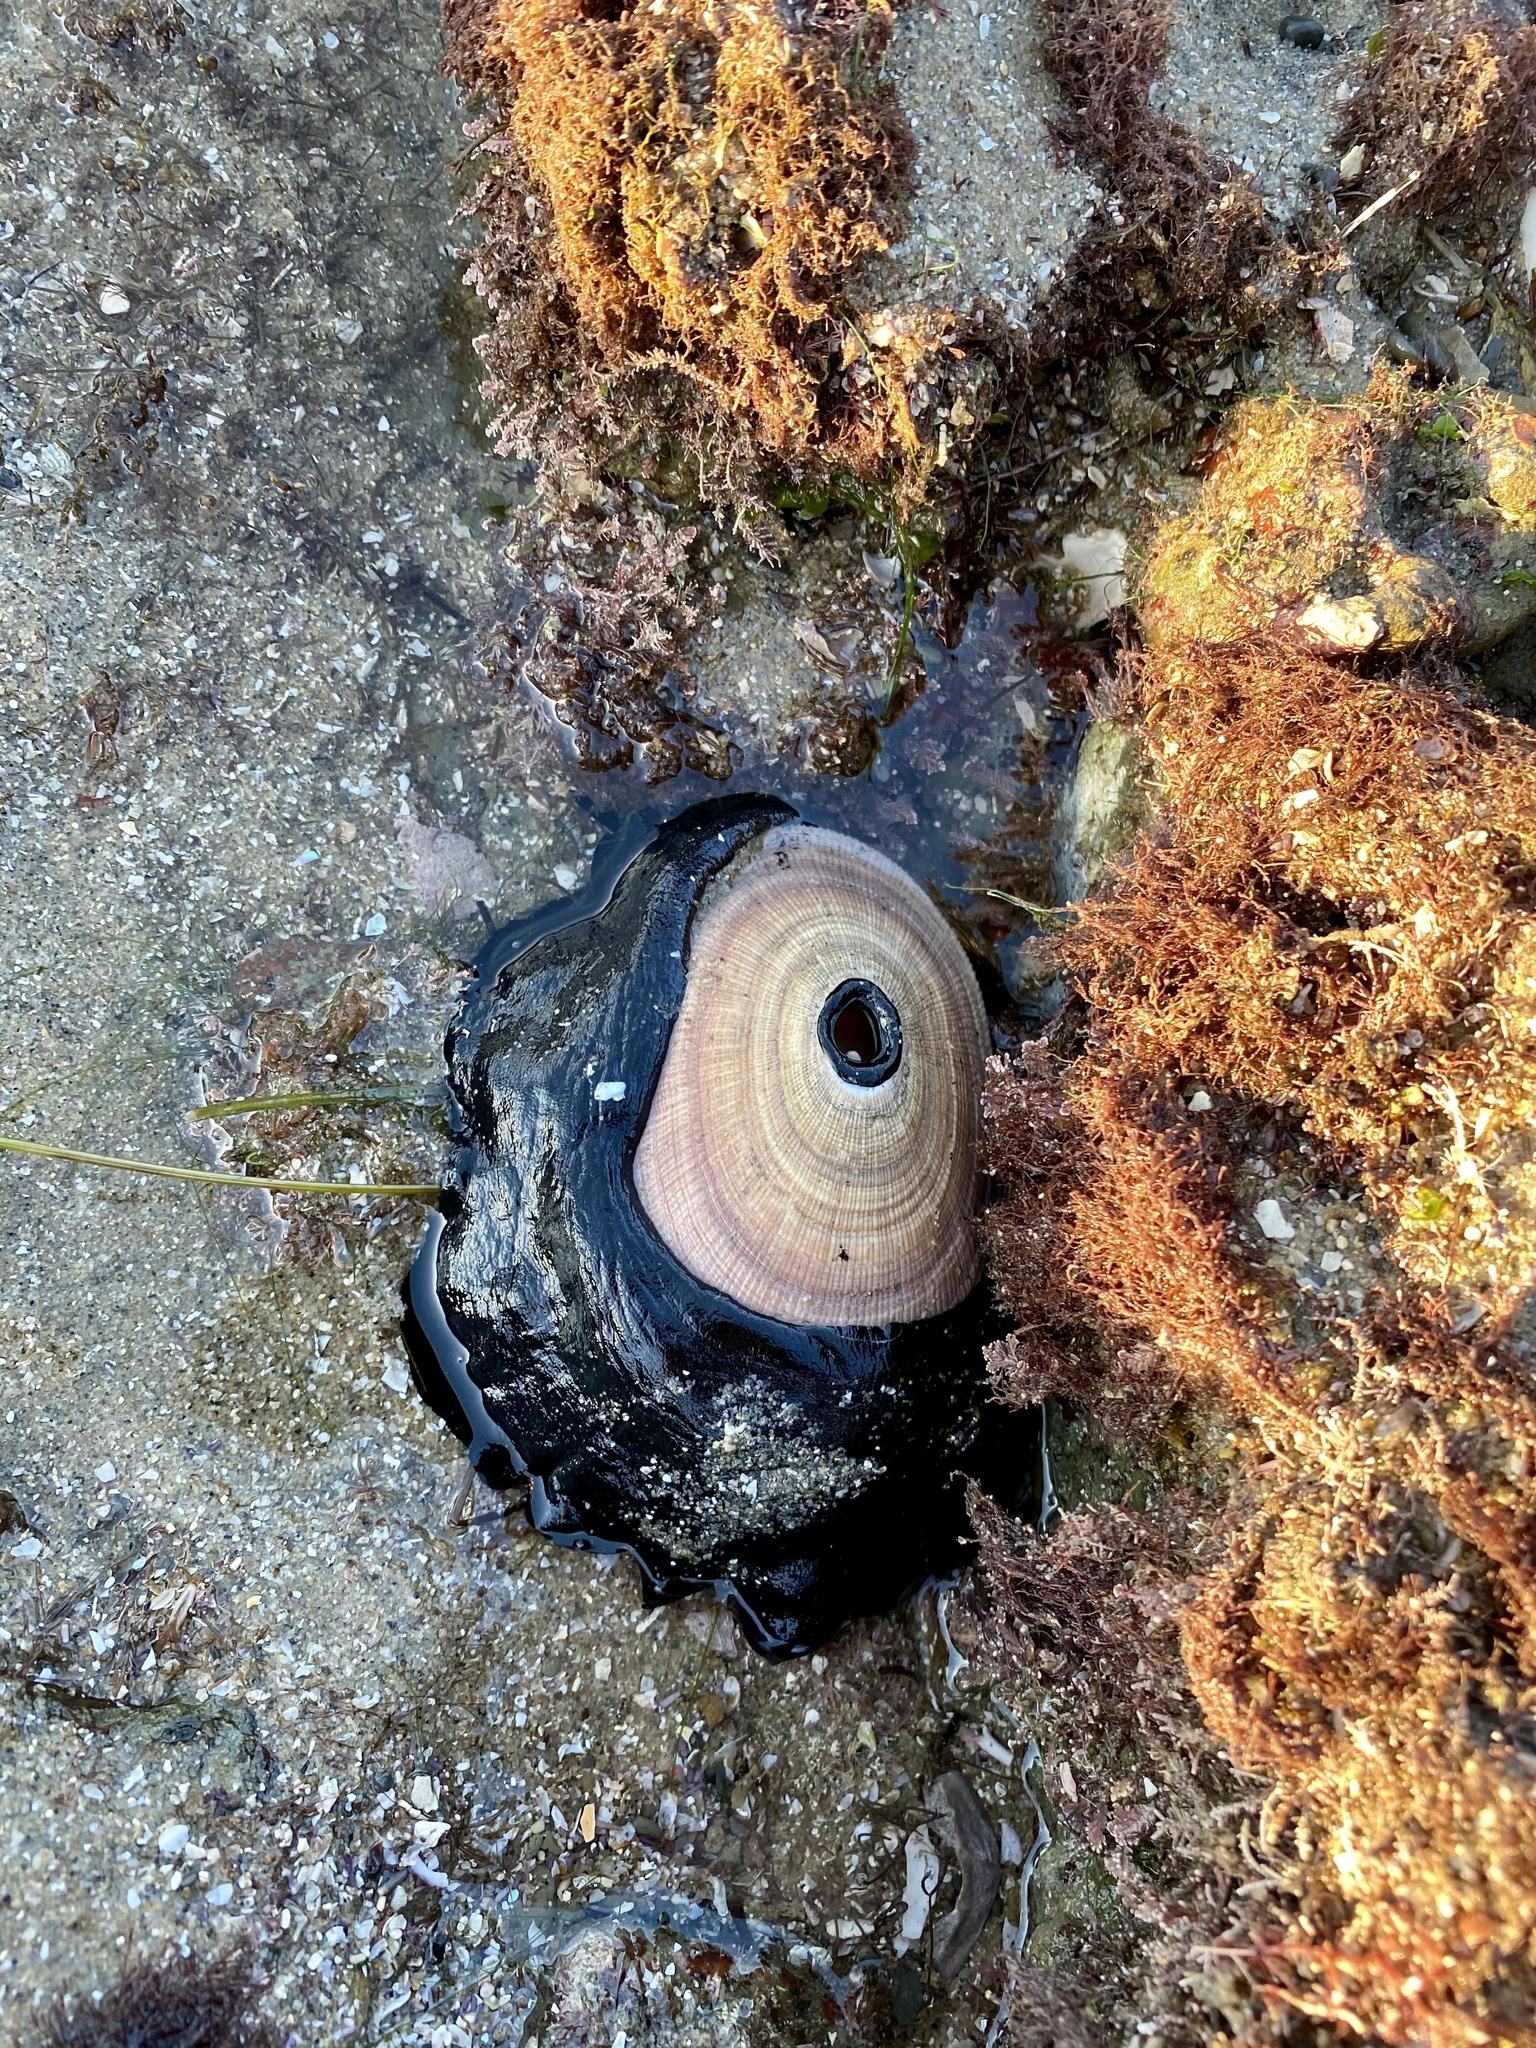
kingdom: Animalia
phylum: Mollusca
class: Gastropoda
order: Lepetellida
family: Fissurellidae
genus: Megathura
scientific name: Megathura crenulata
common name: Giant keyhole limpet
